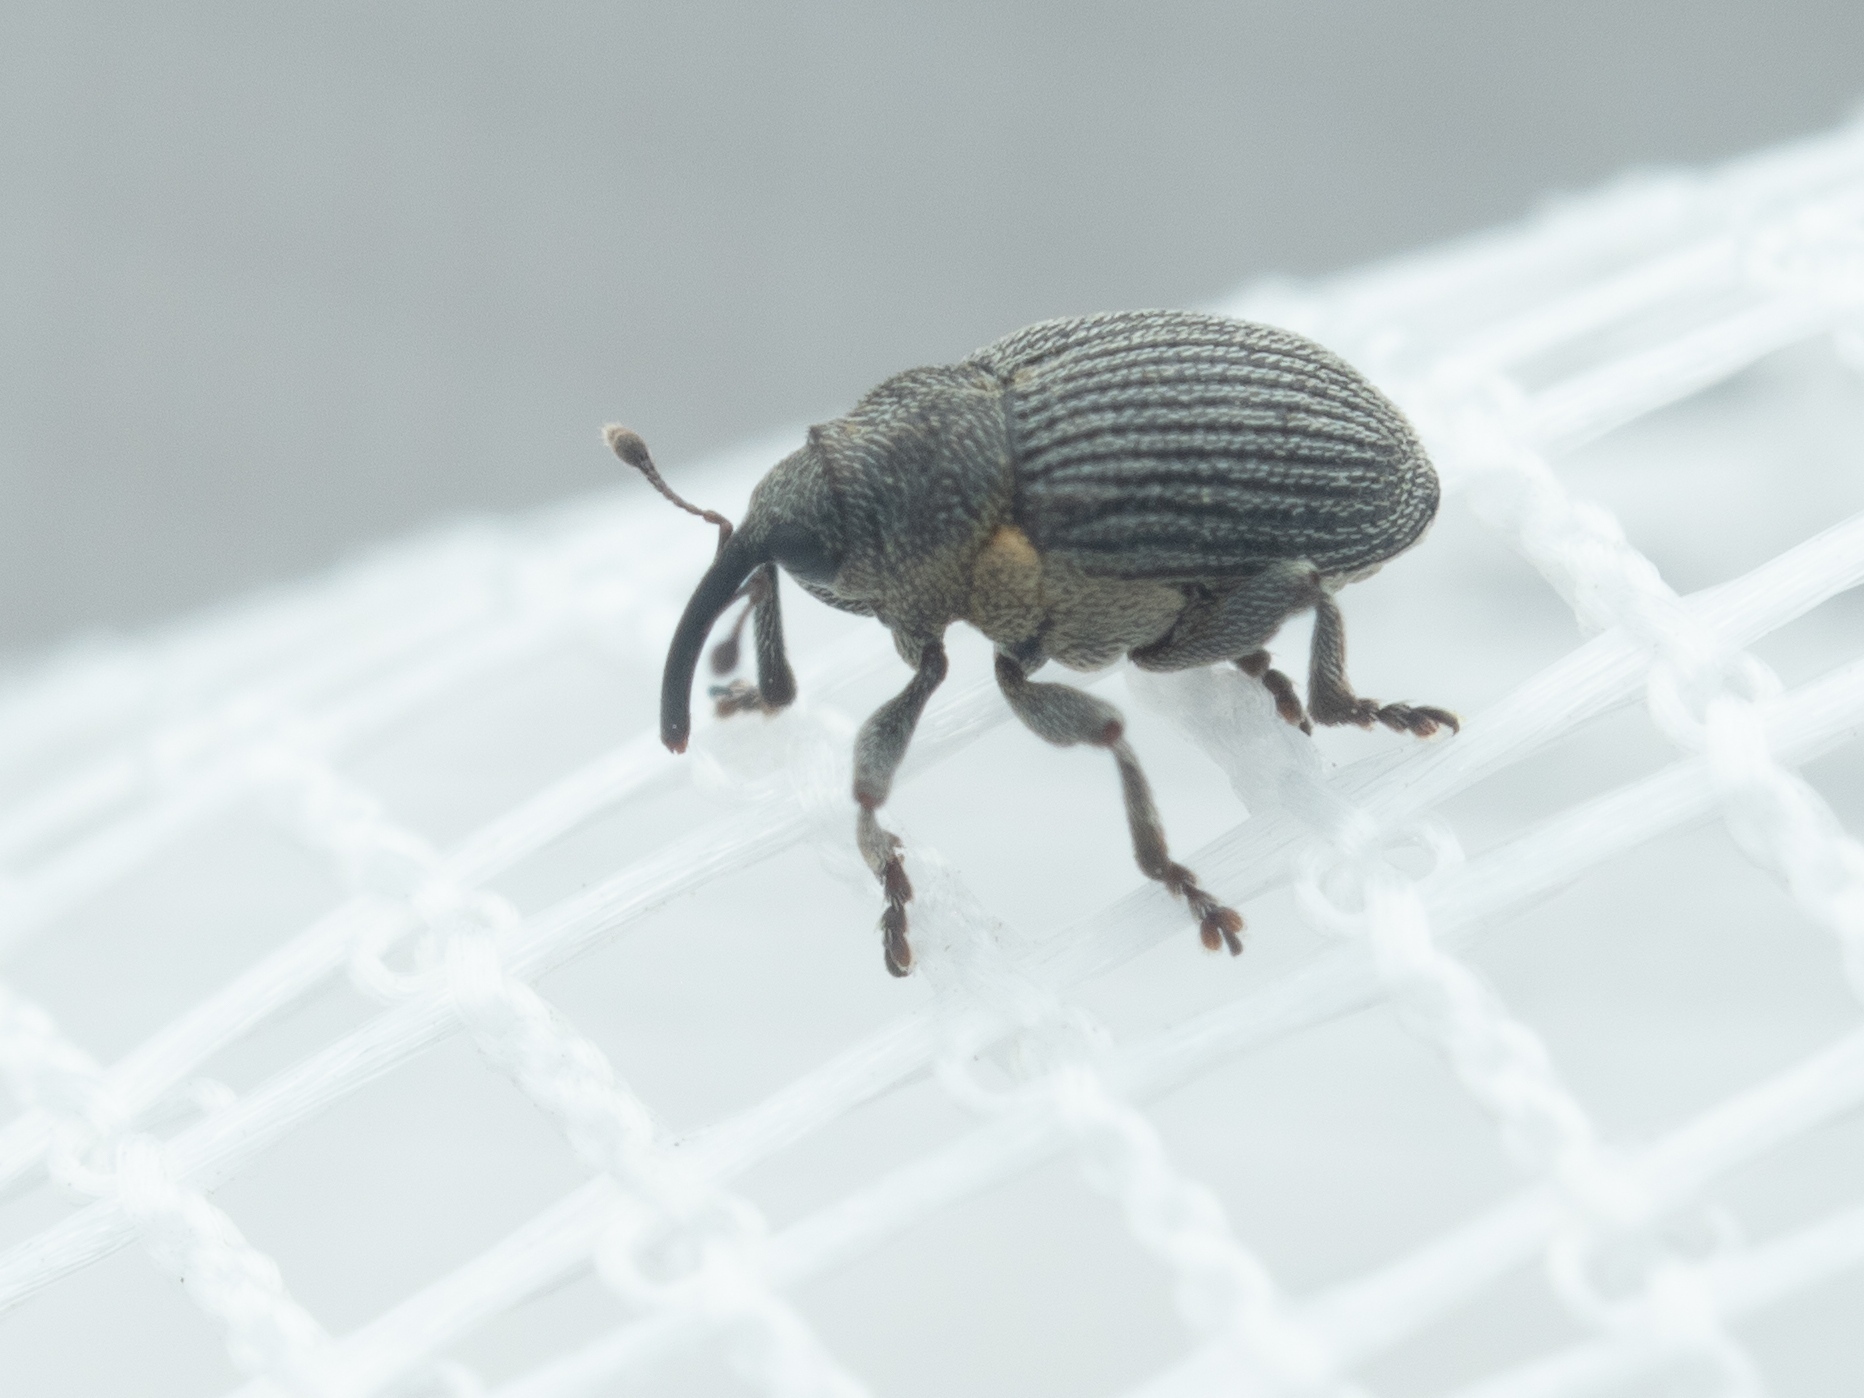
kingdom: Animalia
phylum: Arthropoda
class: Insecta
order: Coleoptera
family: Curculionidae
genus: Ceutorhynchus
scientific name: Ceutorhynchus constrictus
